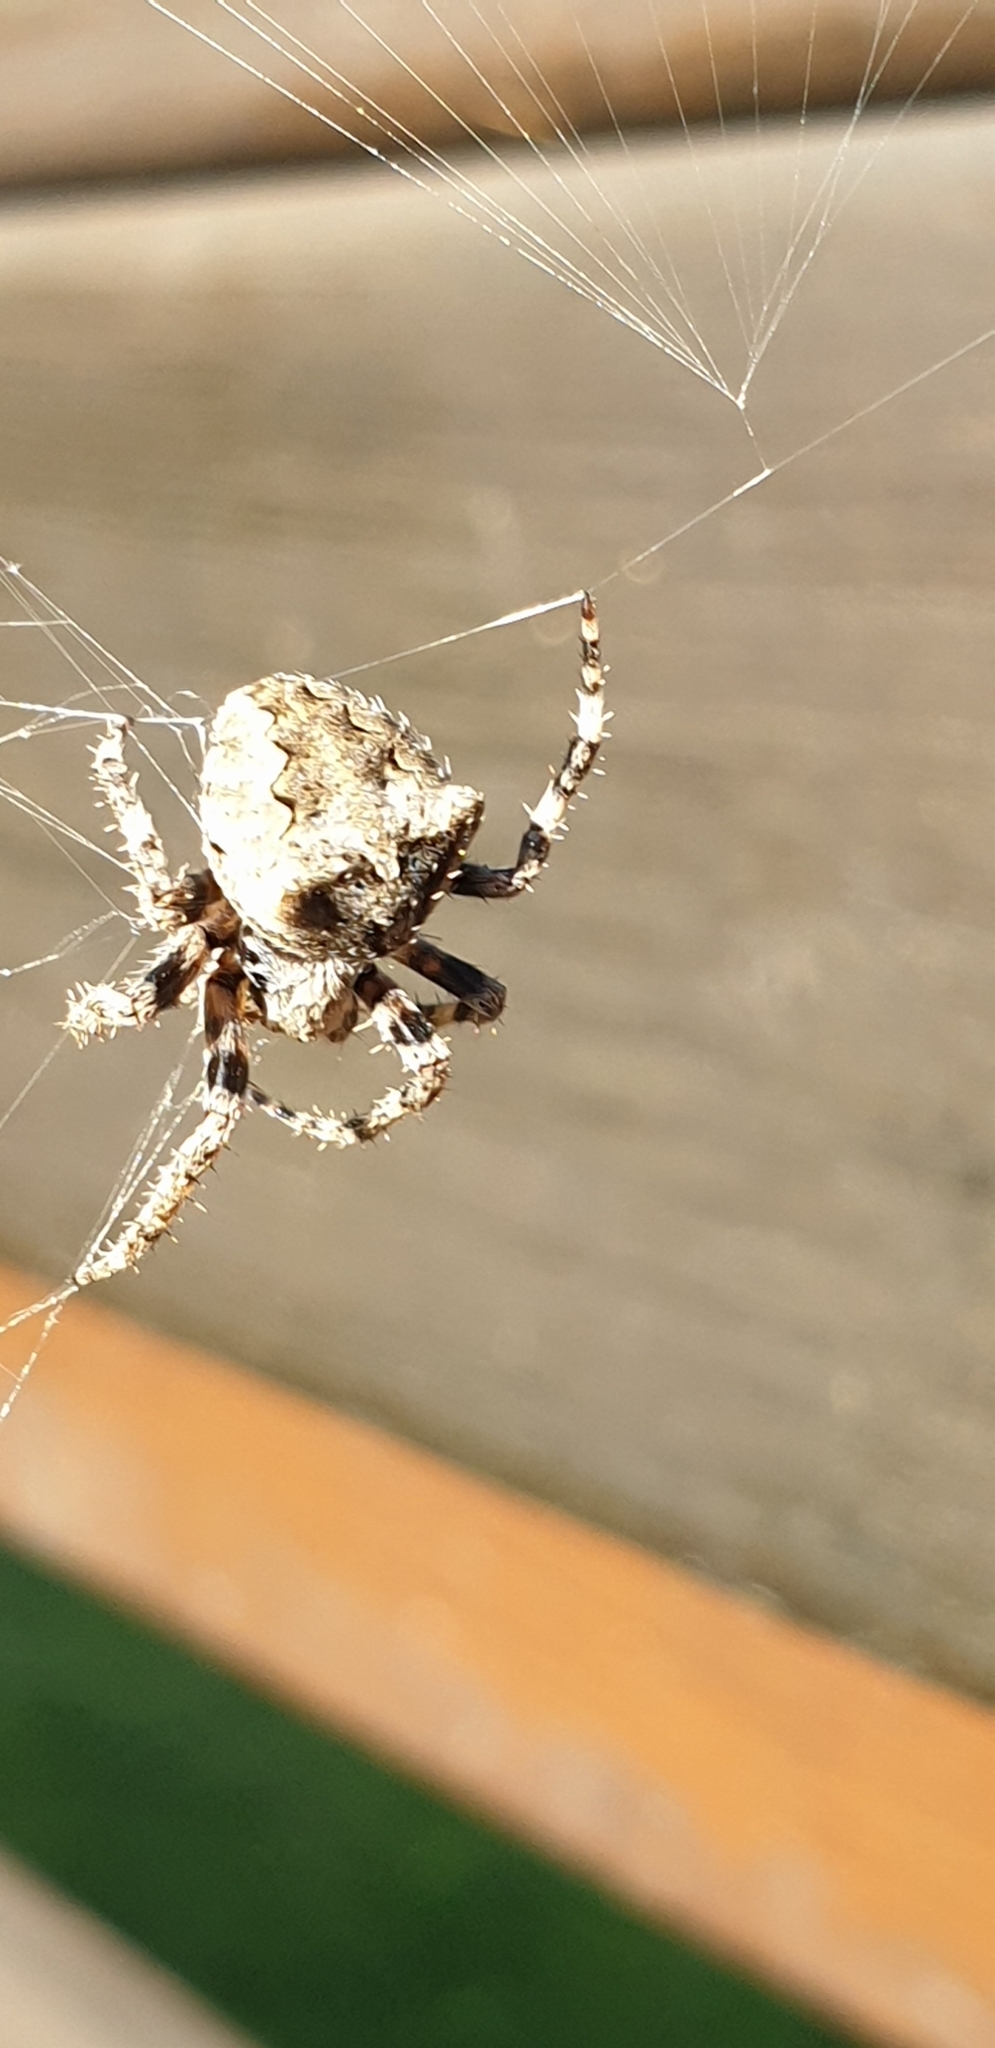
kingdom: Animalia
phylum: Arthropoda
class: Arachnida
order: Araneae
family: Araneidae
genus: Araneus
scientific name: Araneus angulatus
